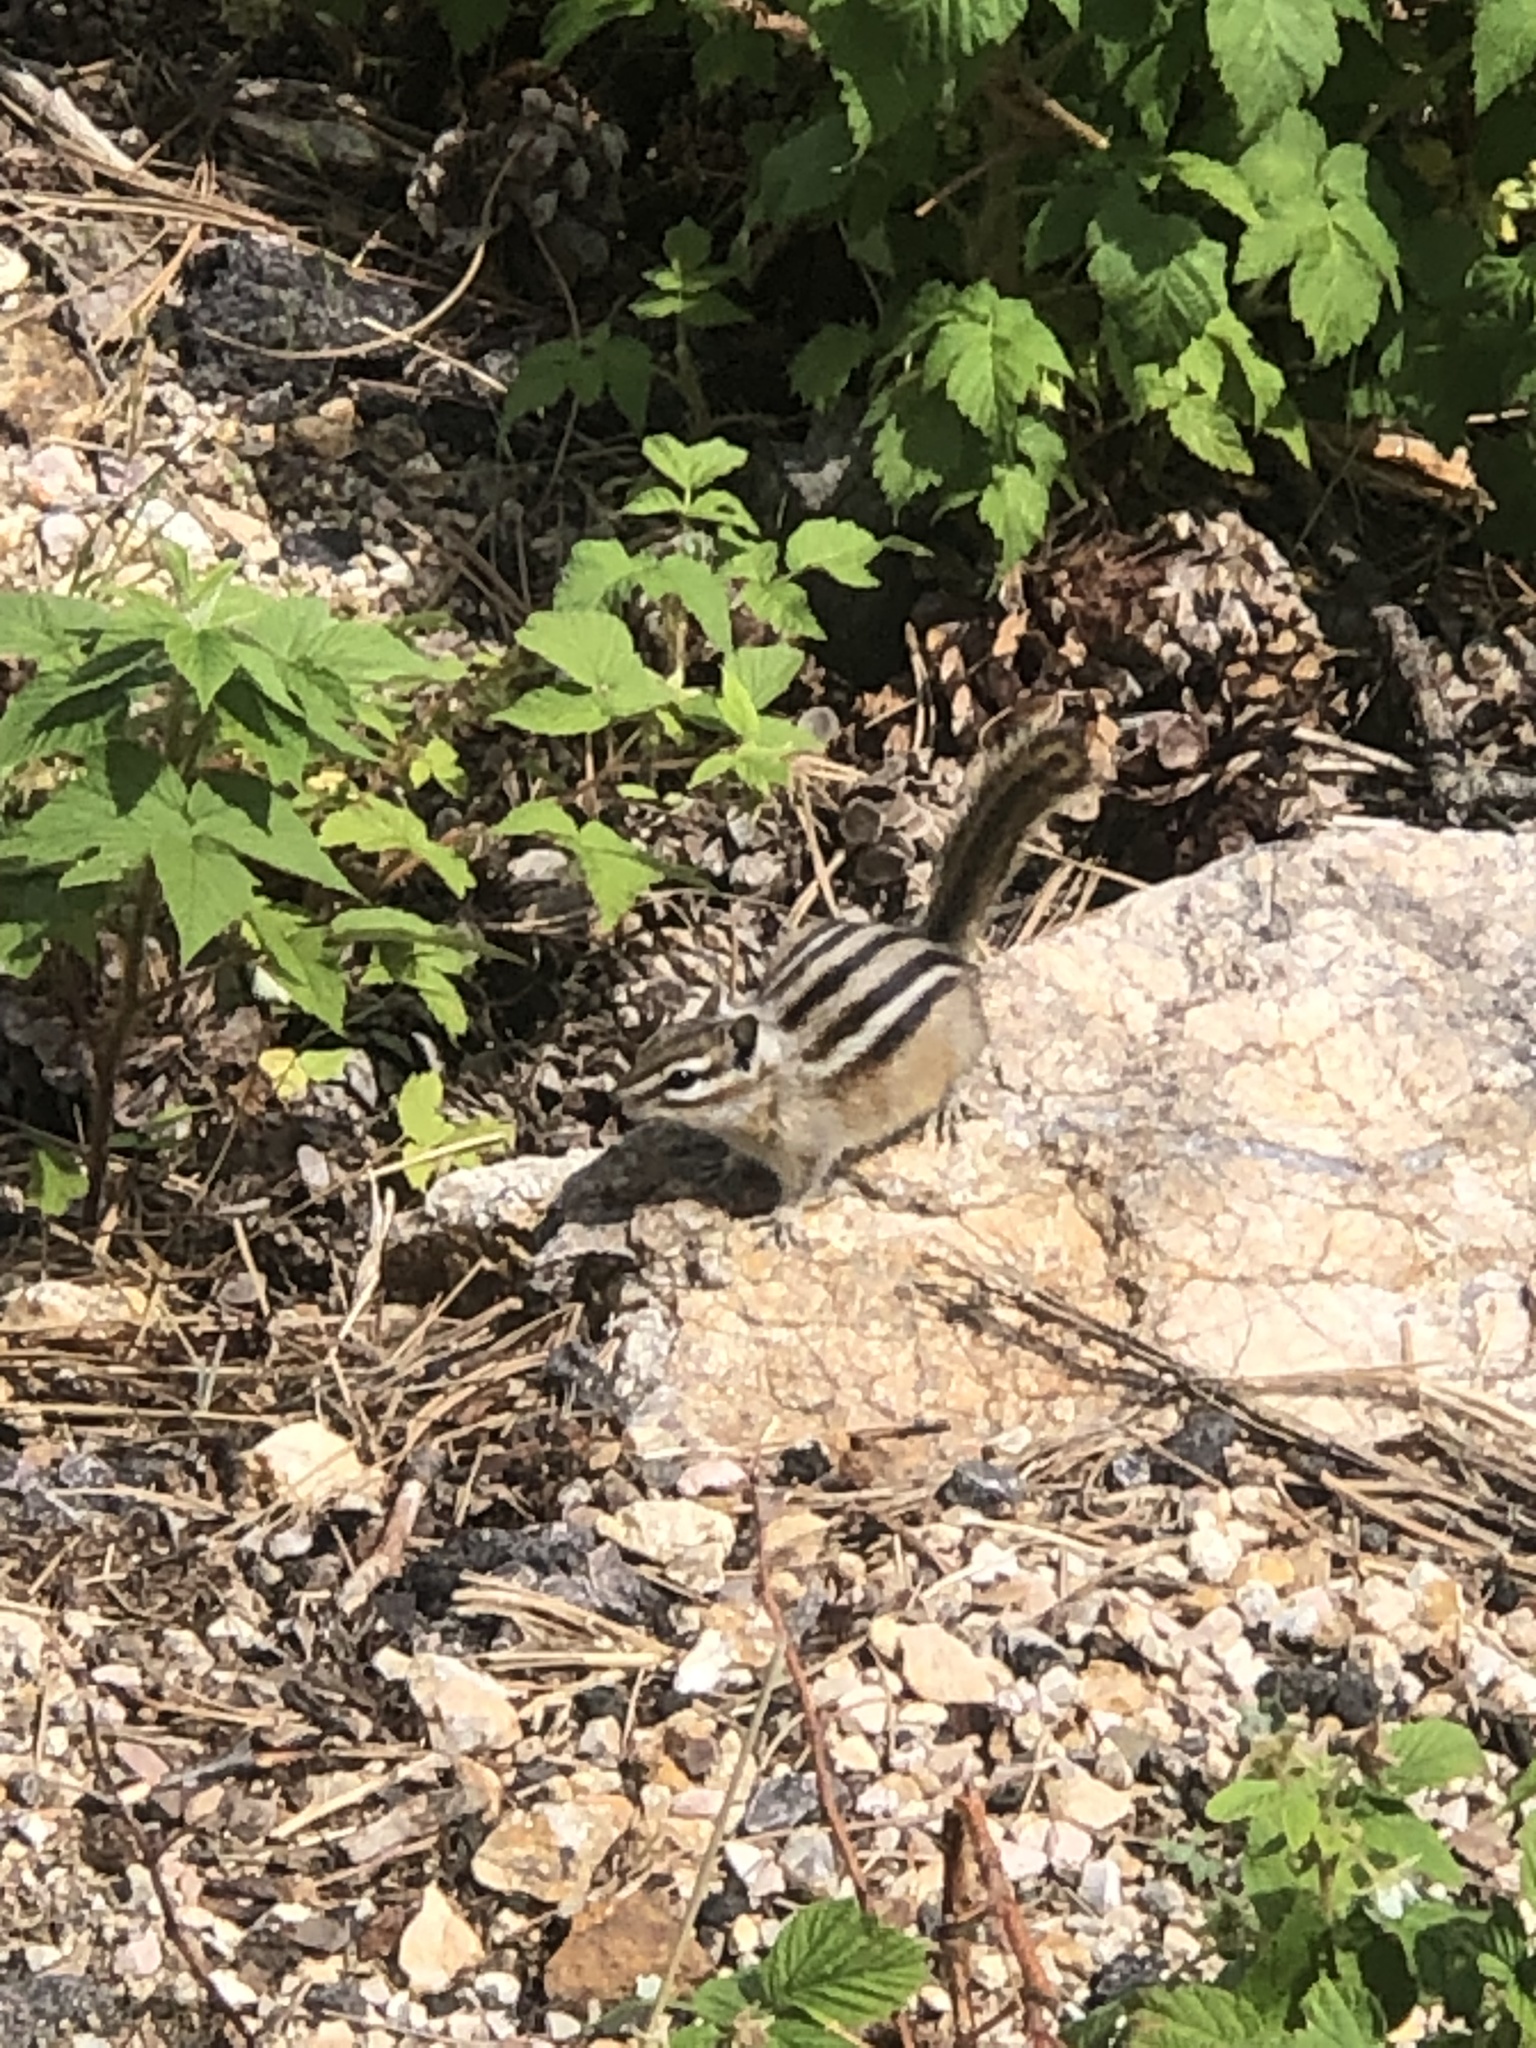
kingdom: Animalia
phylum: Chordata
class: Mammalia
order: Rodentia
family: Sciuridae
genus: Tamias
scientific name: Tamias minimus
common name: Least chipmunk
